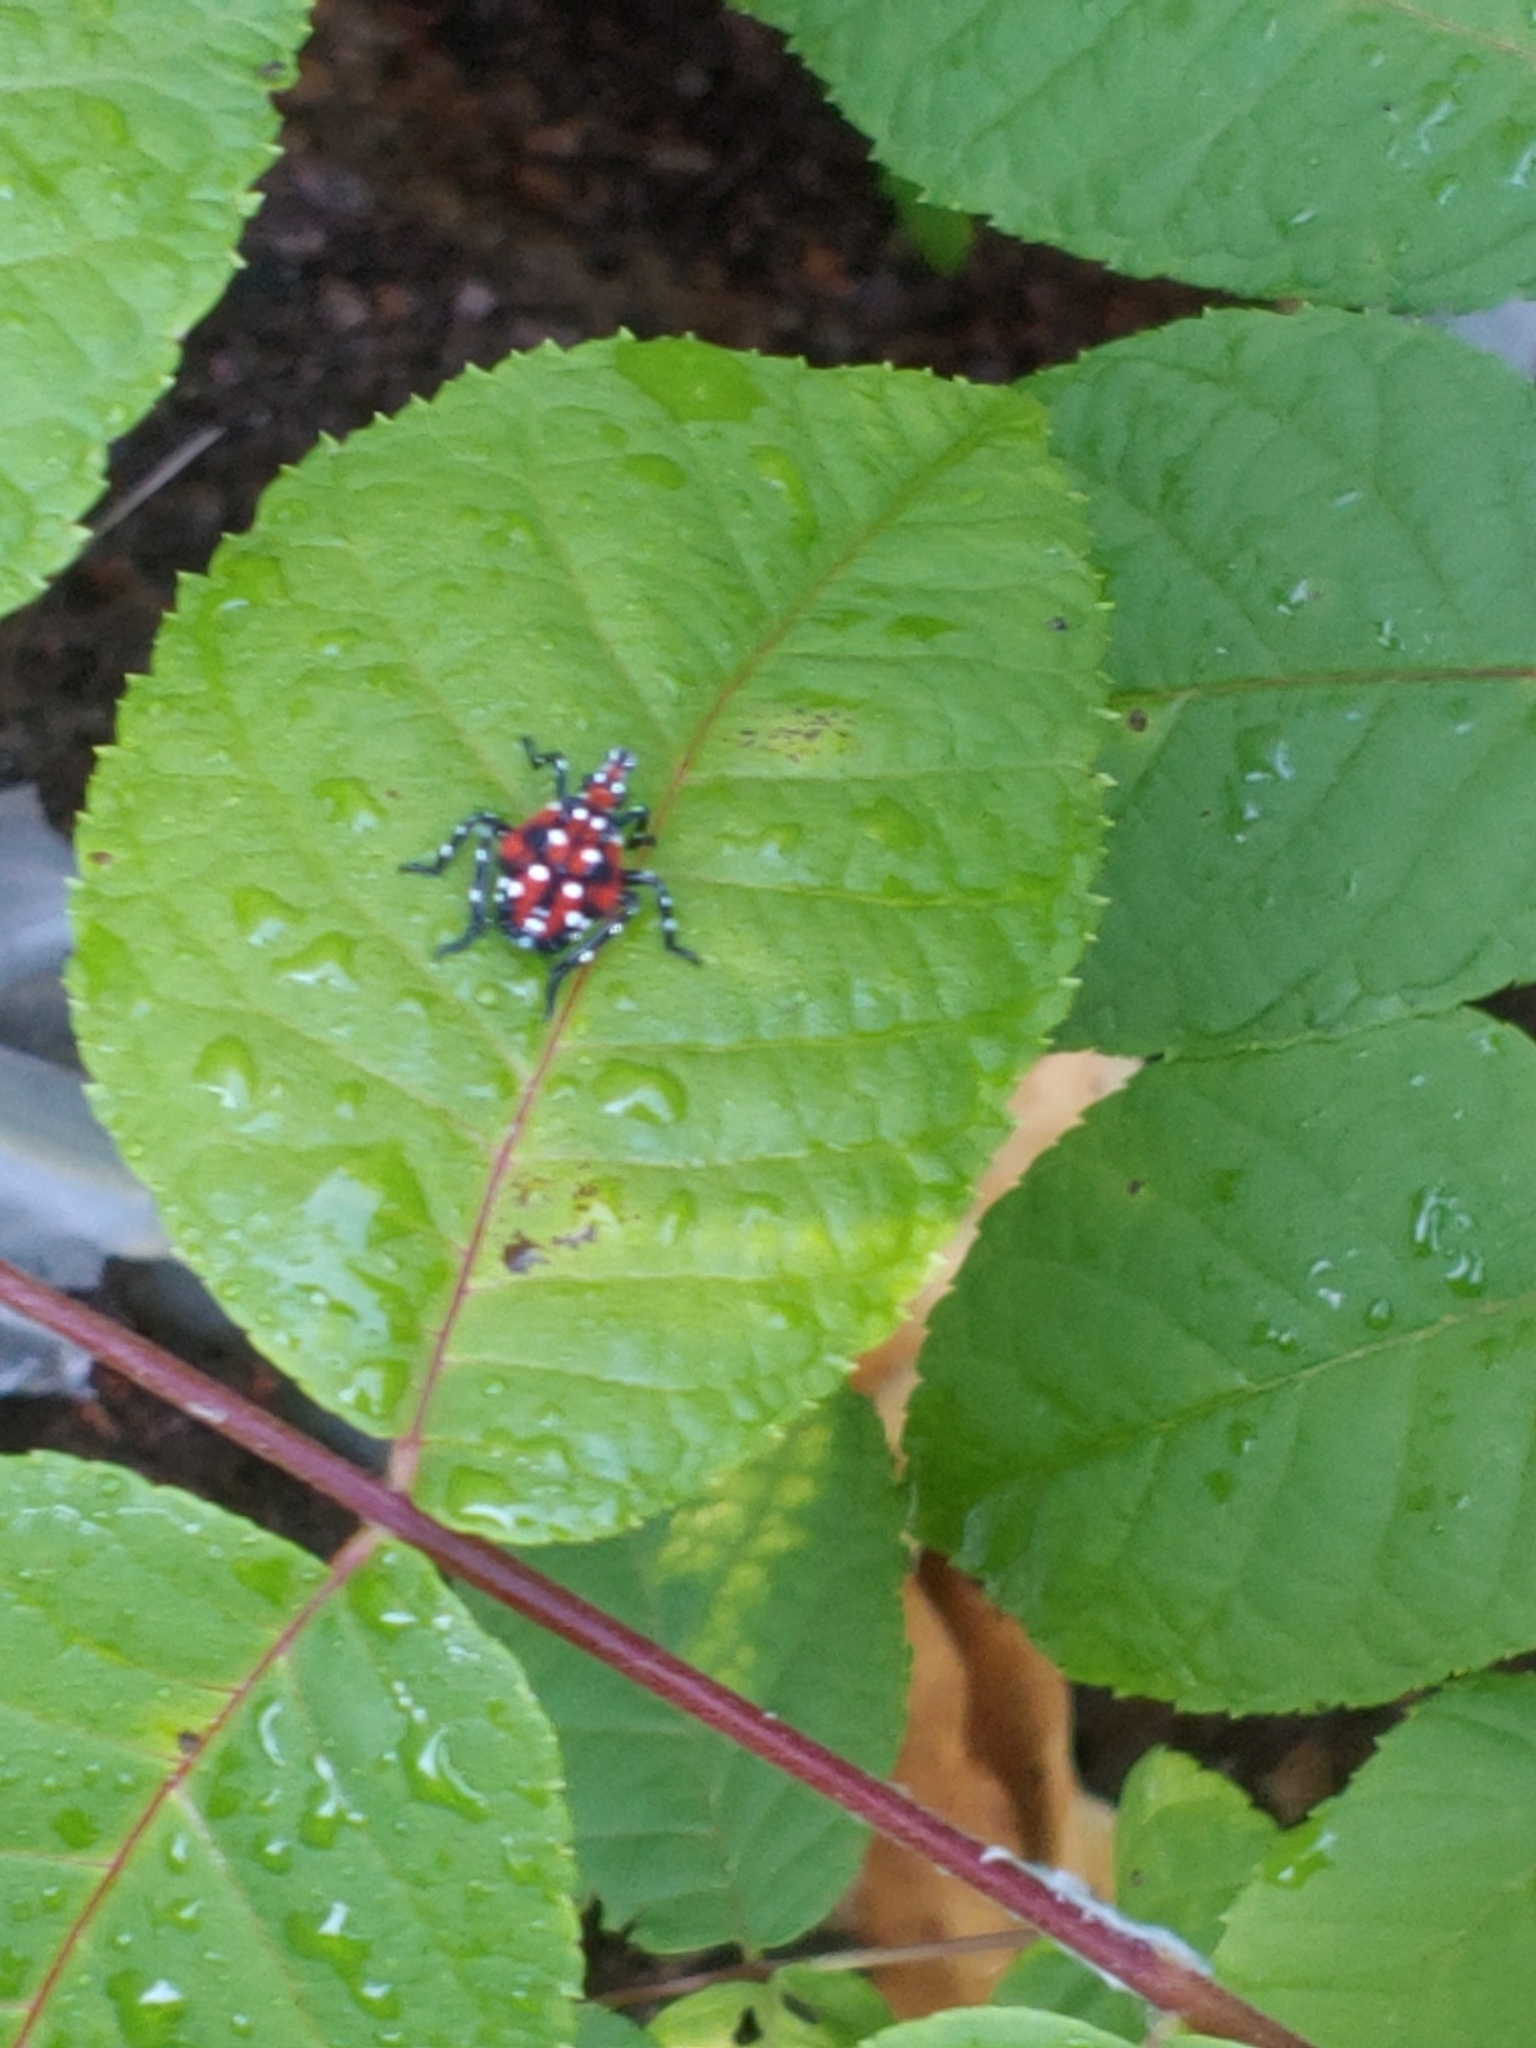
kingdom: Animalia
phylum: Arthropoda
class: Insecta
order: Hemiptera
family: Fulgoridae
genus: Lycorma
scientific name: Lycorma delicatula
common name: Spotted lanternfly
